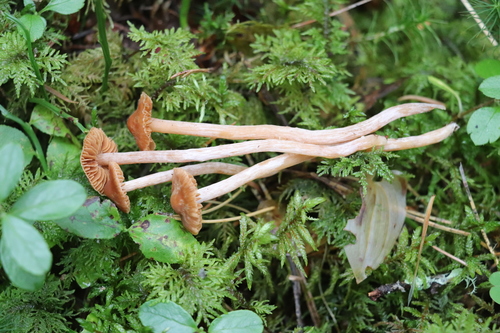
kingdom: Fungi
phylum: Basidiomycota
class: Agaricomycetes
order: Agaricales
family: Cortinariaceae
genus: Cortinarius
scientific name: Cortinarius acutus
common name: Peaked webcap
